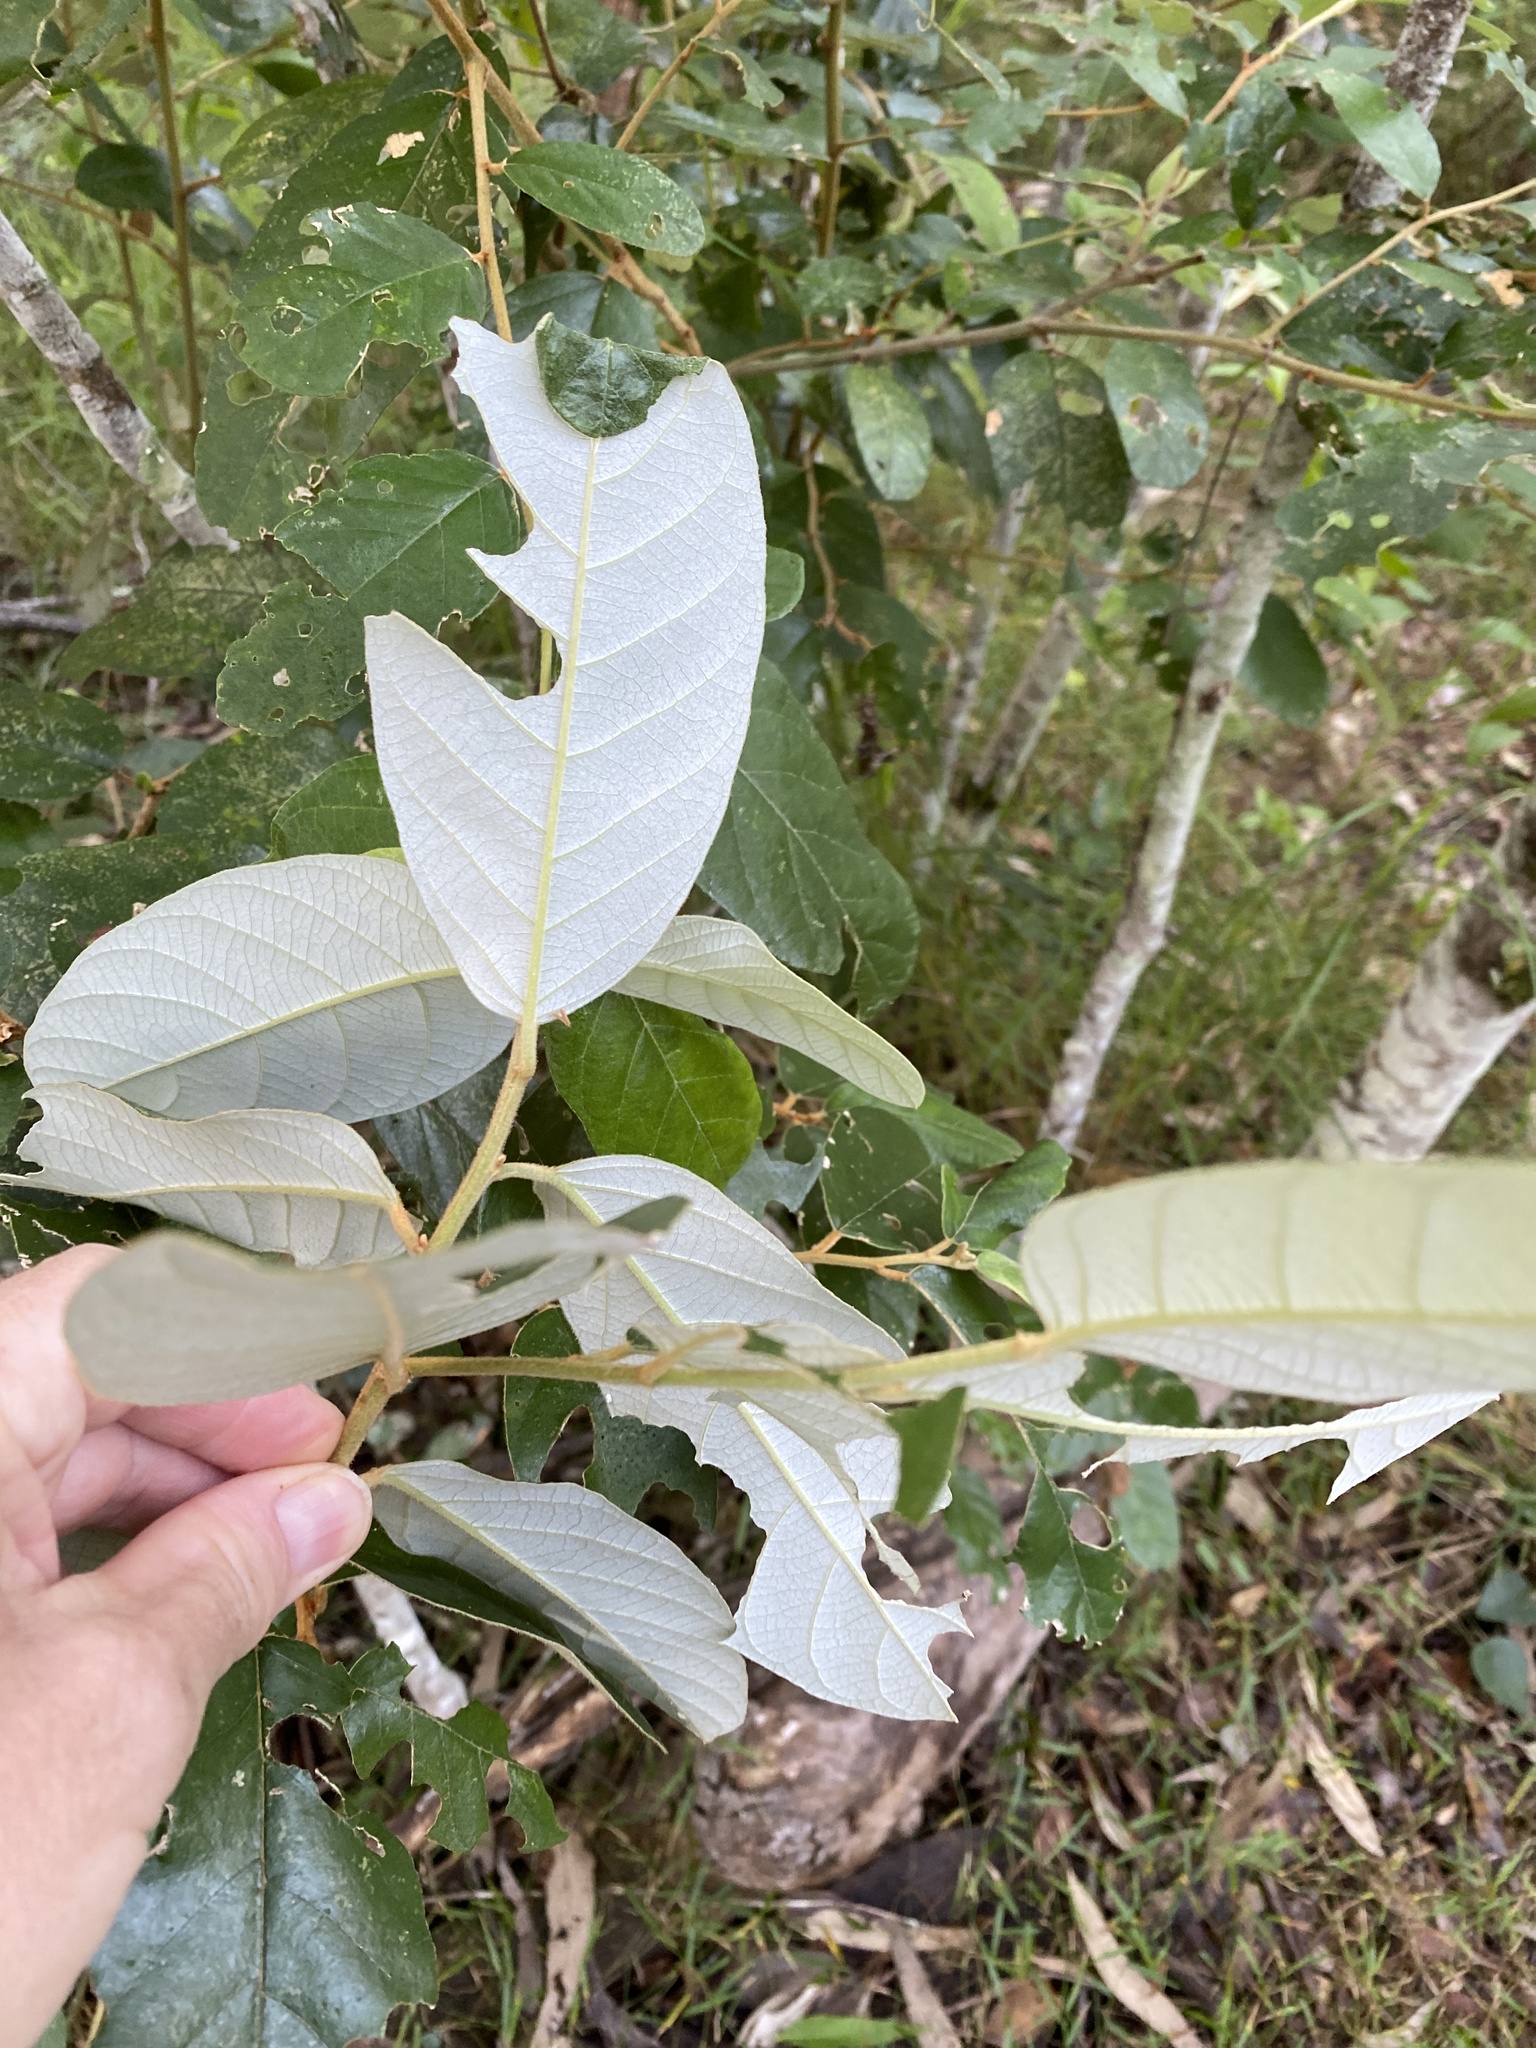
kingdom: Plantae
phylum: Tracheophyta
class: Magnoliopsida
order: Rosales
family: Rhamnaceae
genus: Alphitonia
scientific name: Alphitonia excelsa
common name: Red ash
